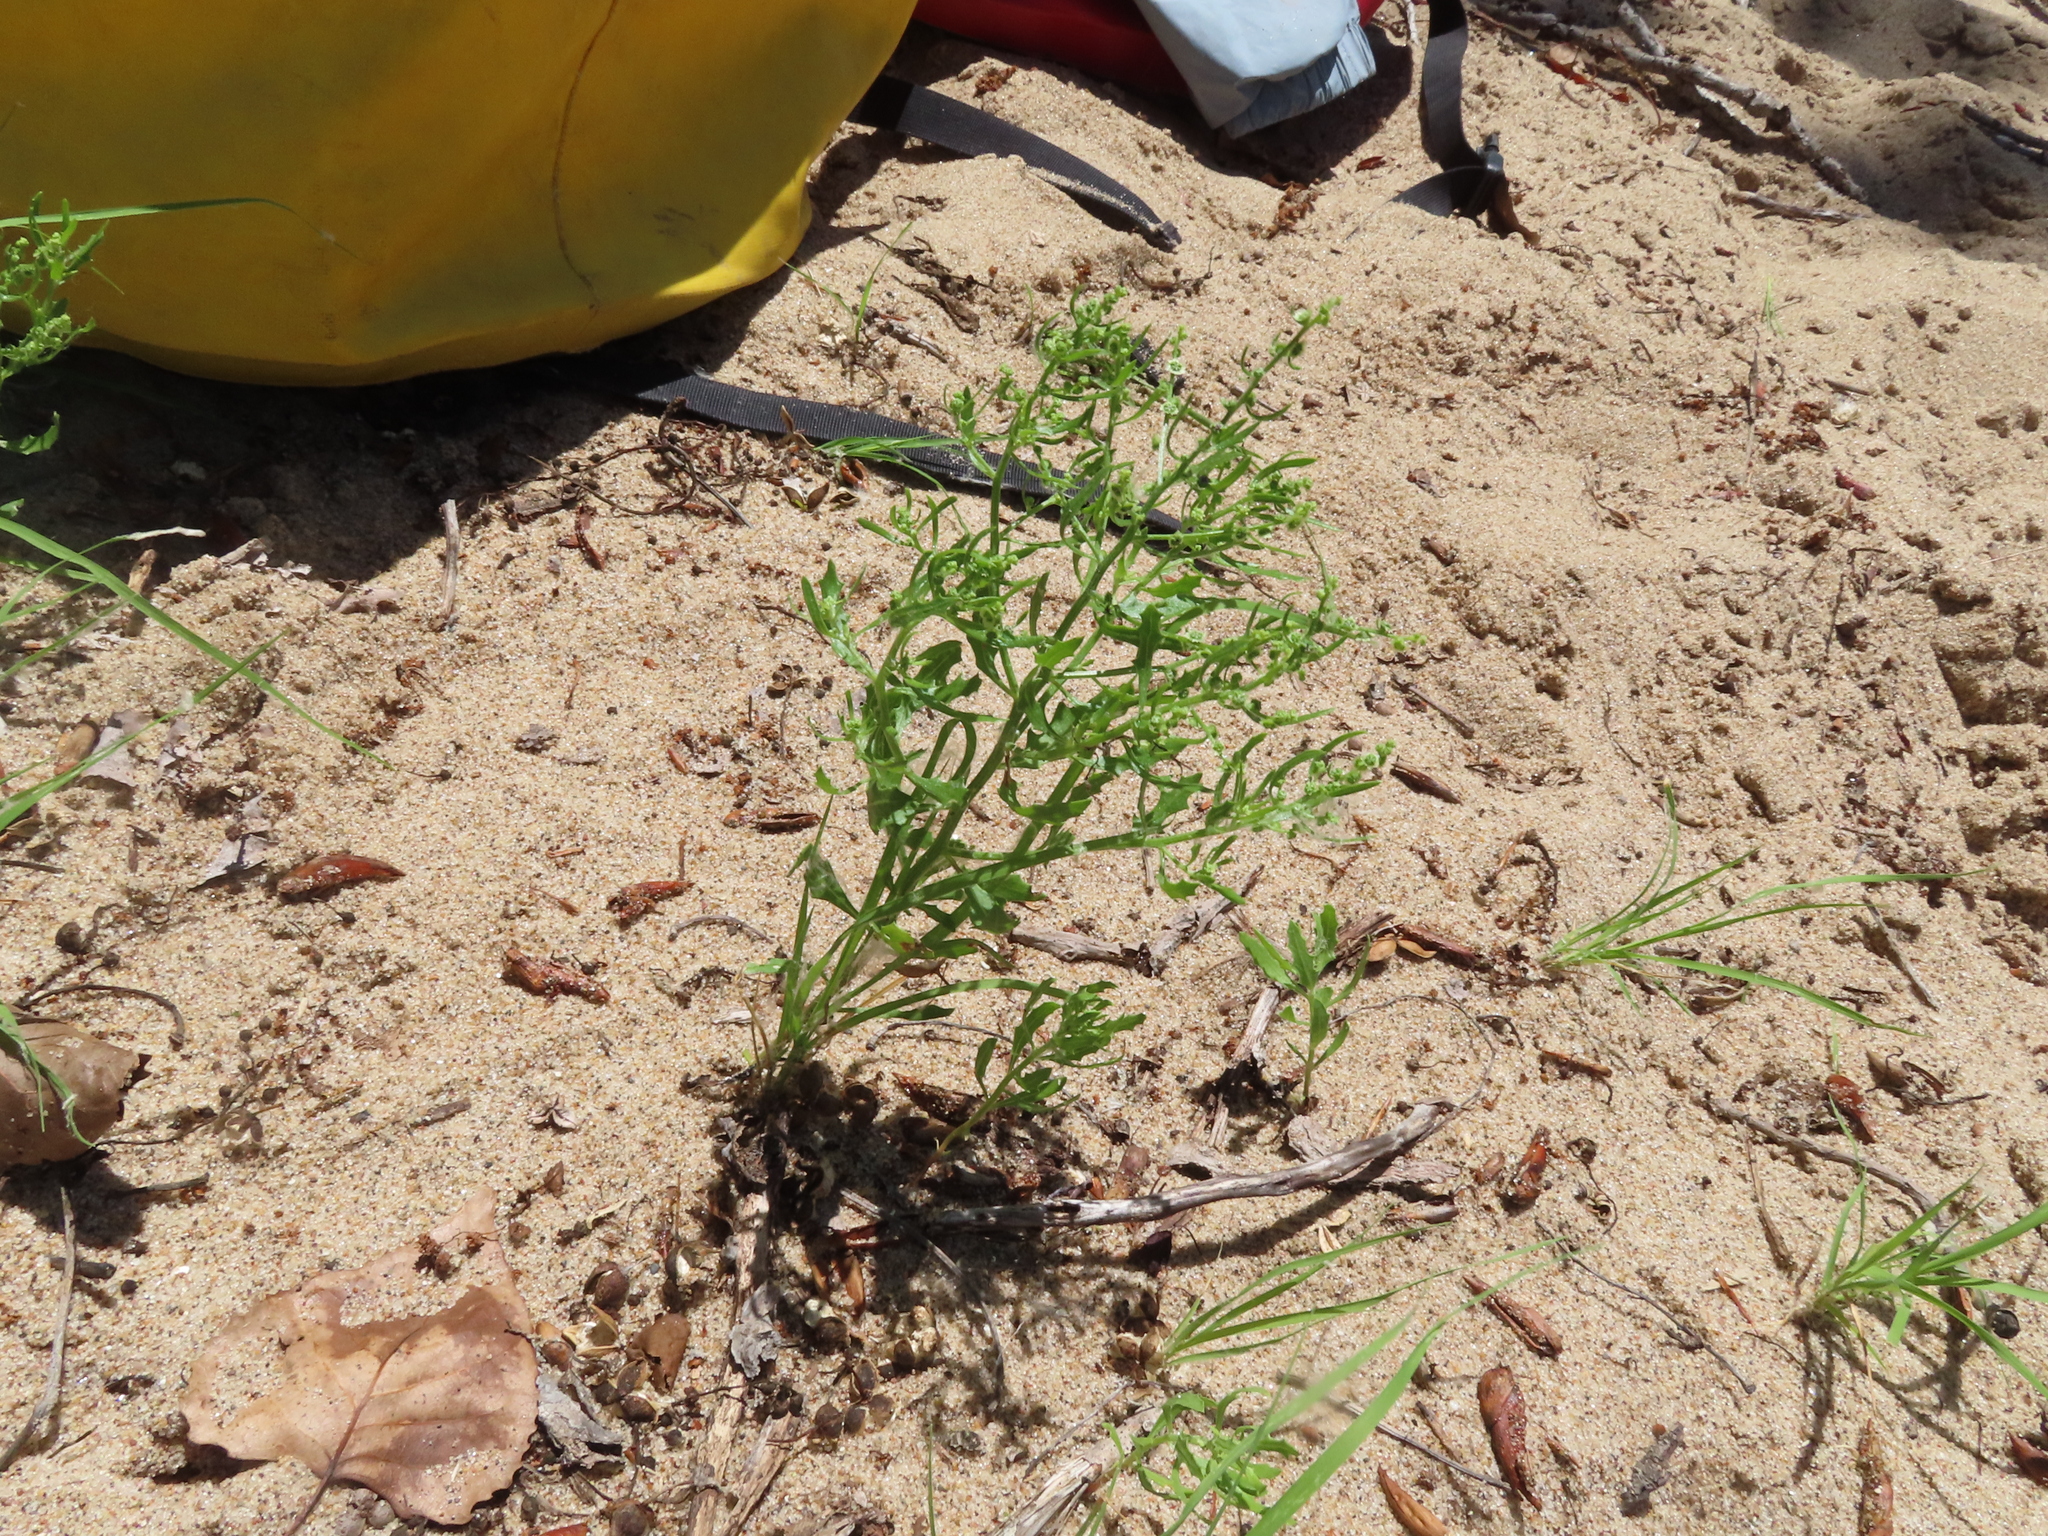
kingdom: Plantae
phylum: Tracheophyta
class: Magnoliopsida
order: Caryophyllales
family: Amaranthaceae
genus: Dysphania
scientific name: Dysphania atriplicifolia
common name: Plains tumbleweed
